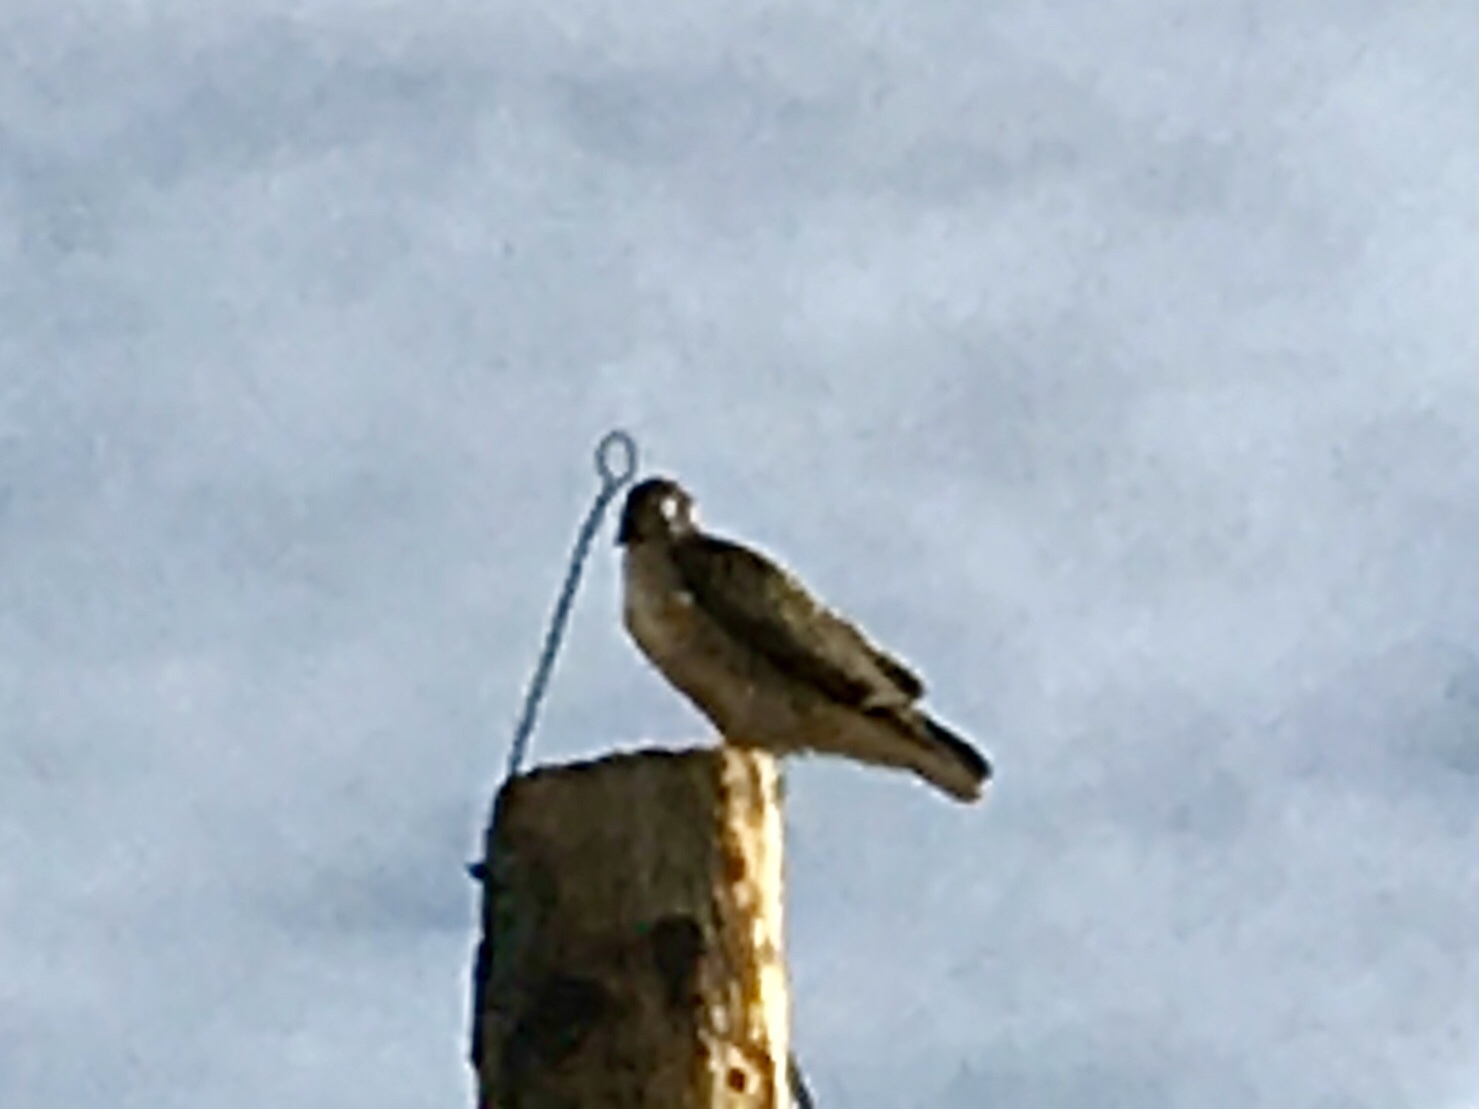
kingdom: Animalia
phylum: Chordata
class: Aves
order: Accipitriformes
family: Accipitridae
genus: Buteo
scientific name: Buteo jamaicensis
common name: Red-tailed hawk
